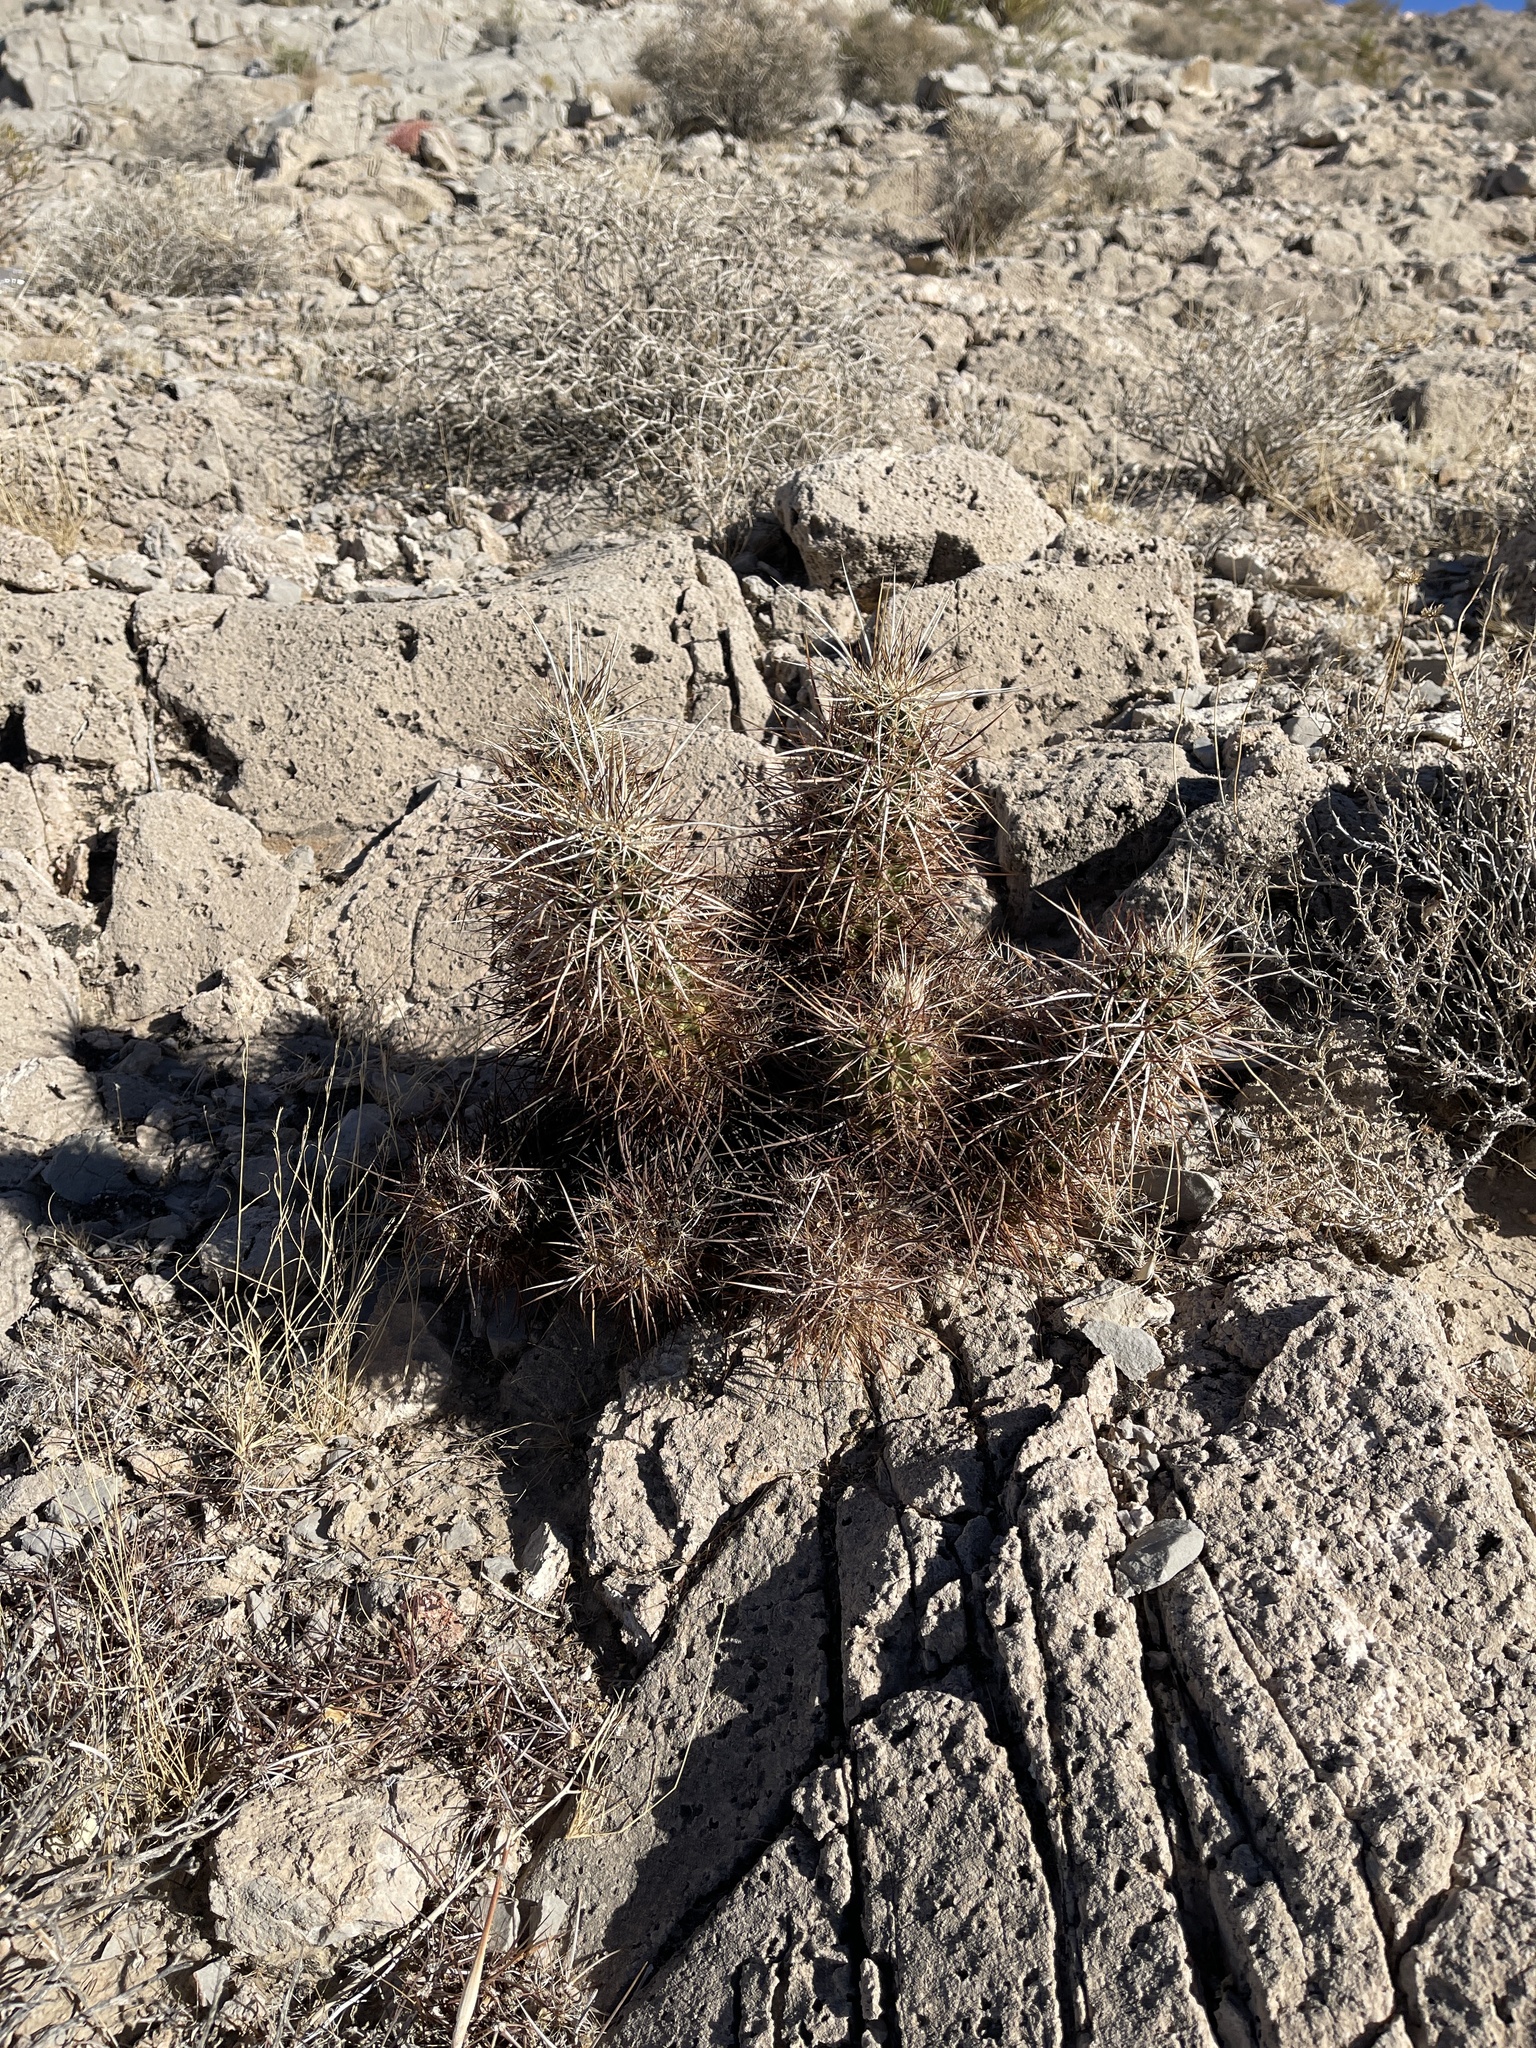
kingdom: Plantae
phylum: Tracheophyta
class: Magnoliopsida
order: Caryophyllales
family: Cactaceae
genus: Echinocereus
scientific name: Echinocereus engelmannii
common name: Engelmann's hedgehog cactus
